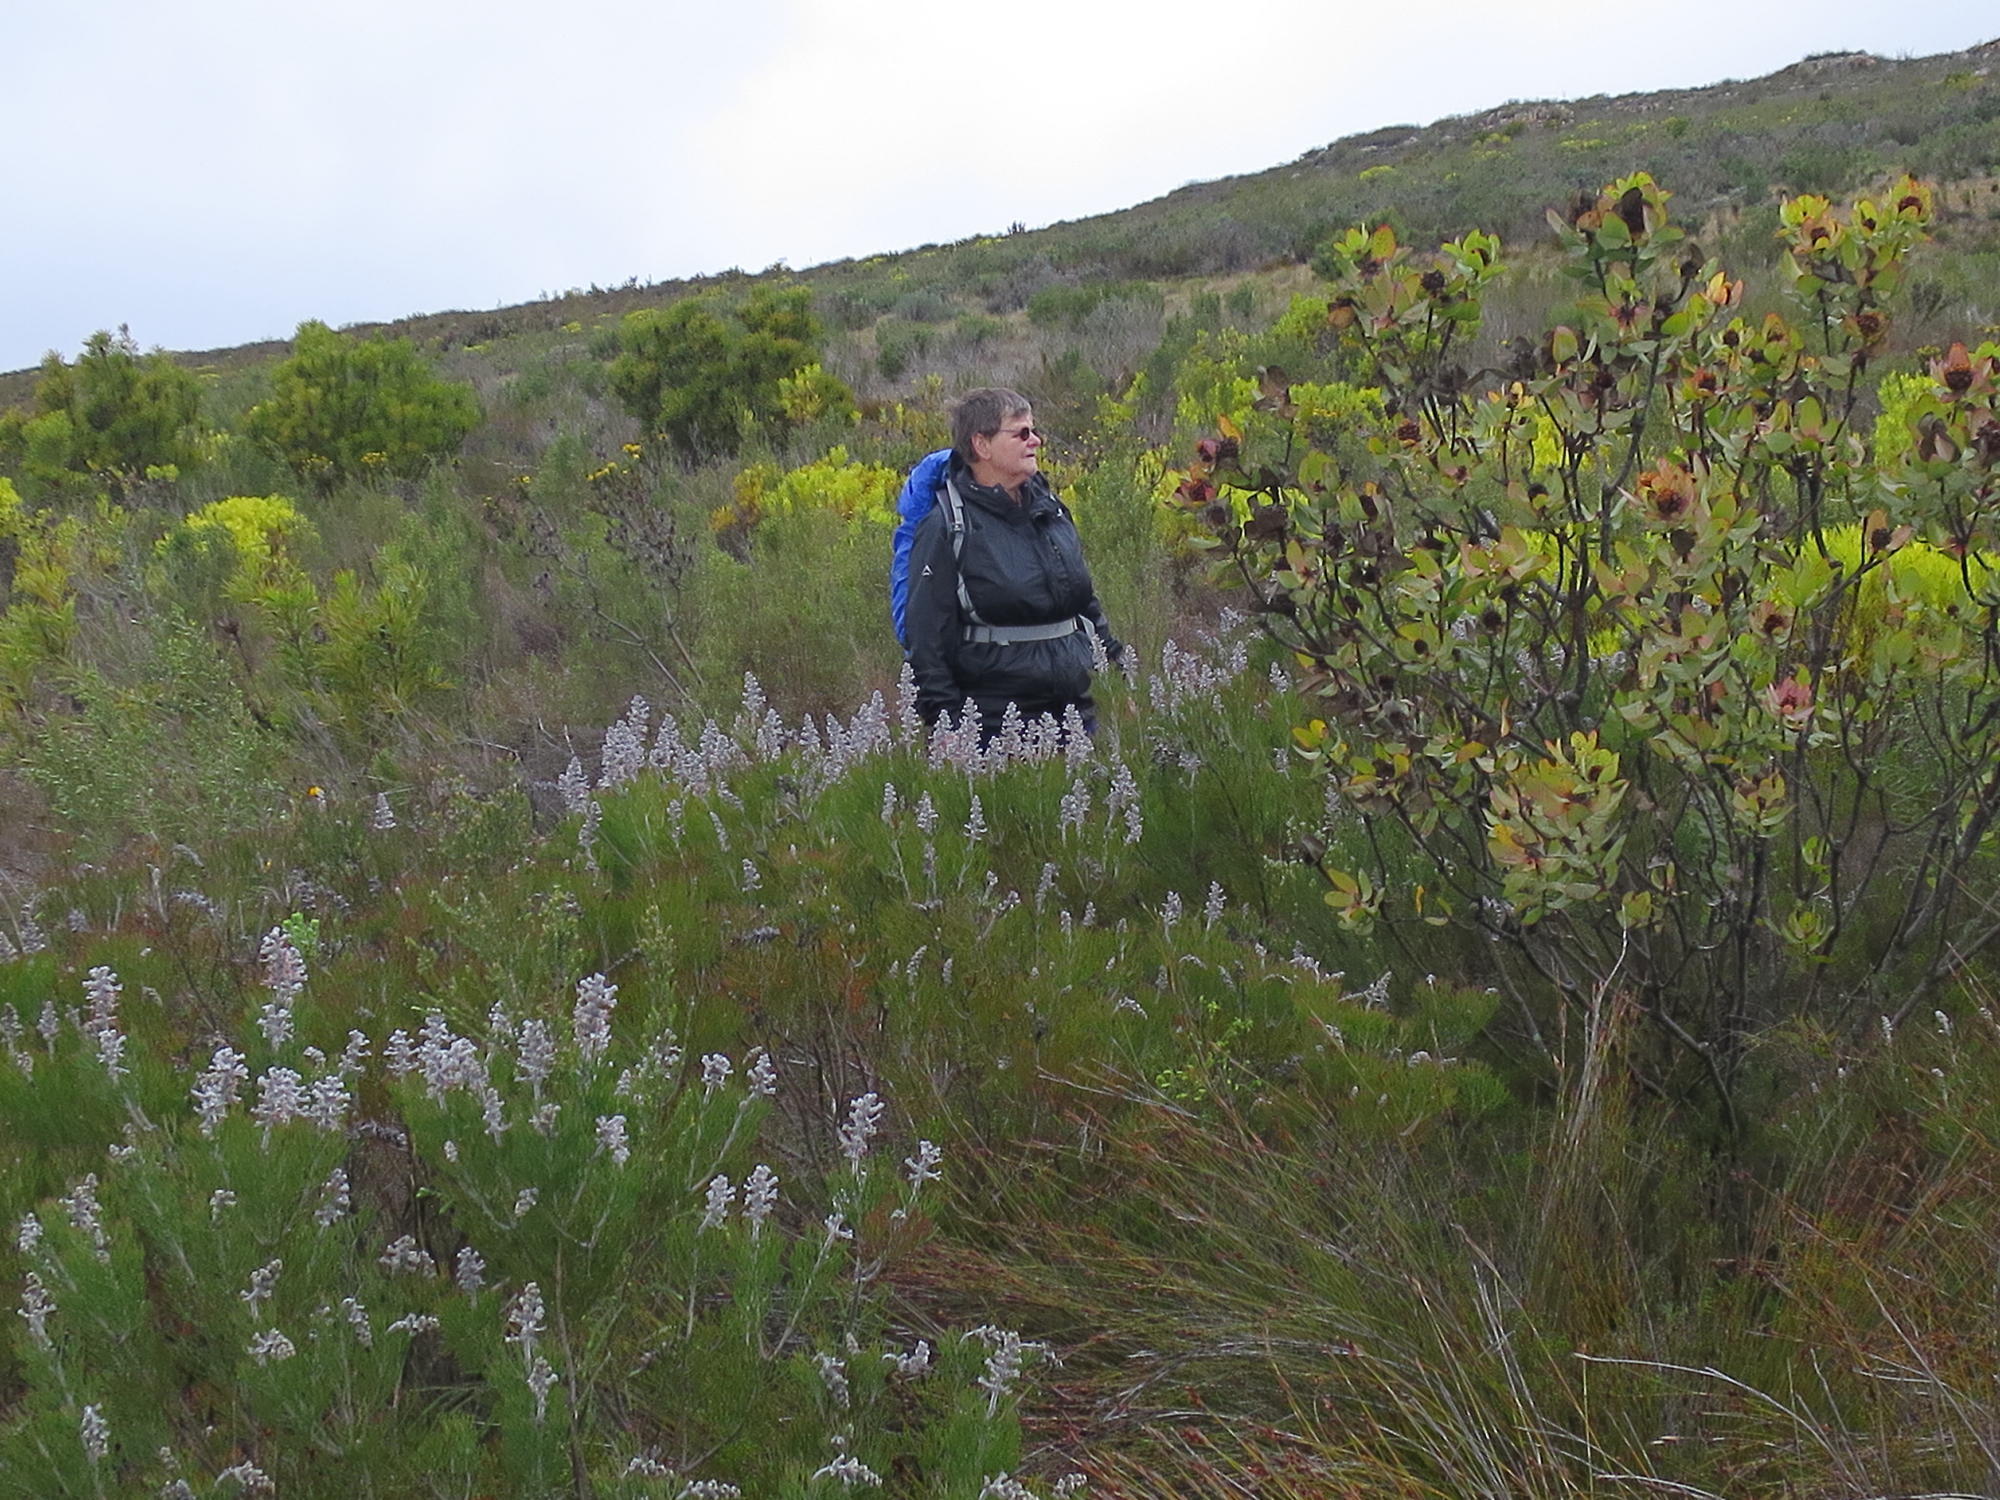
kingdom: Plantae
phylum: Tracheophyta
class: Magnoliopsida
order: Proteales
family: Proteaceae
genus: Leucadendron
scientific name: Leucadendron tinctum
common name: Spicy conebush
